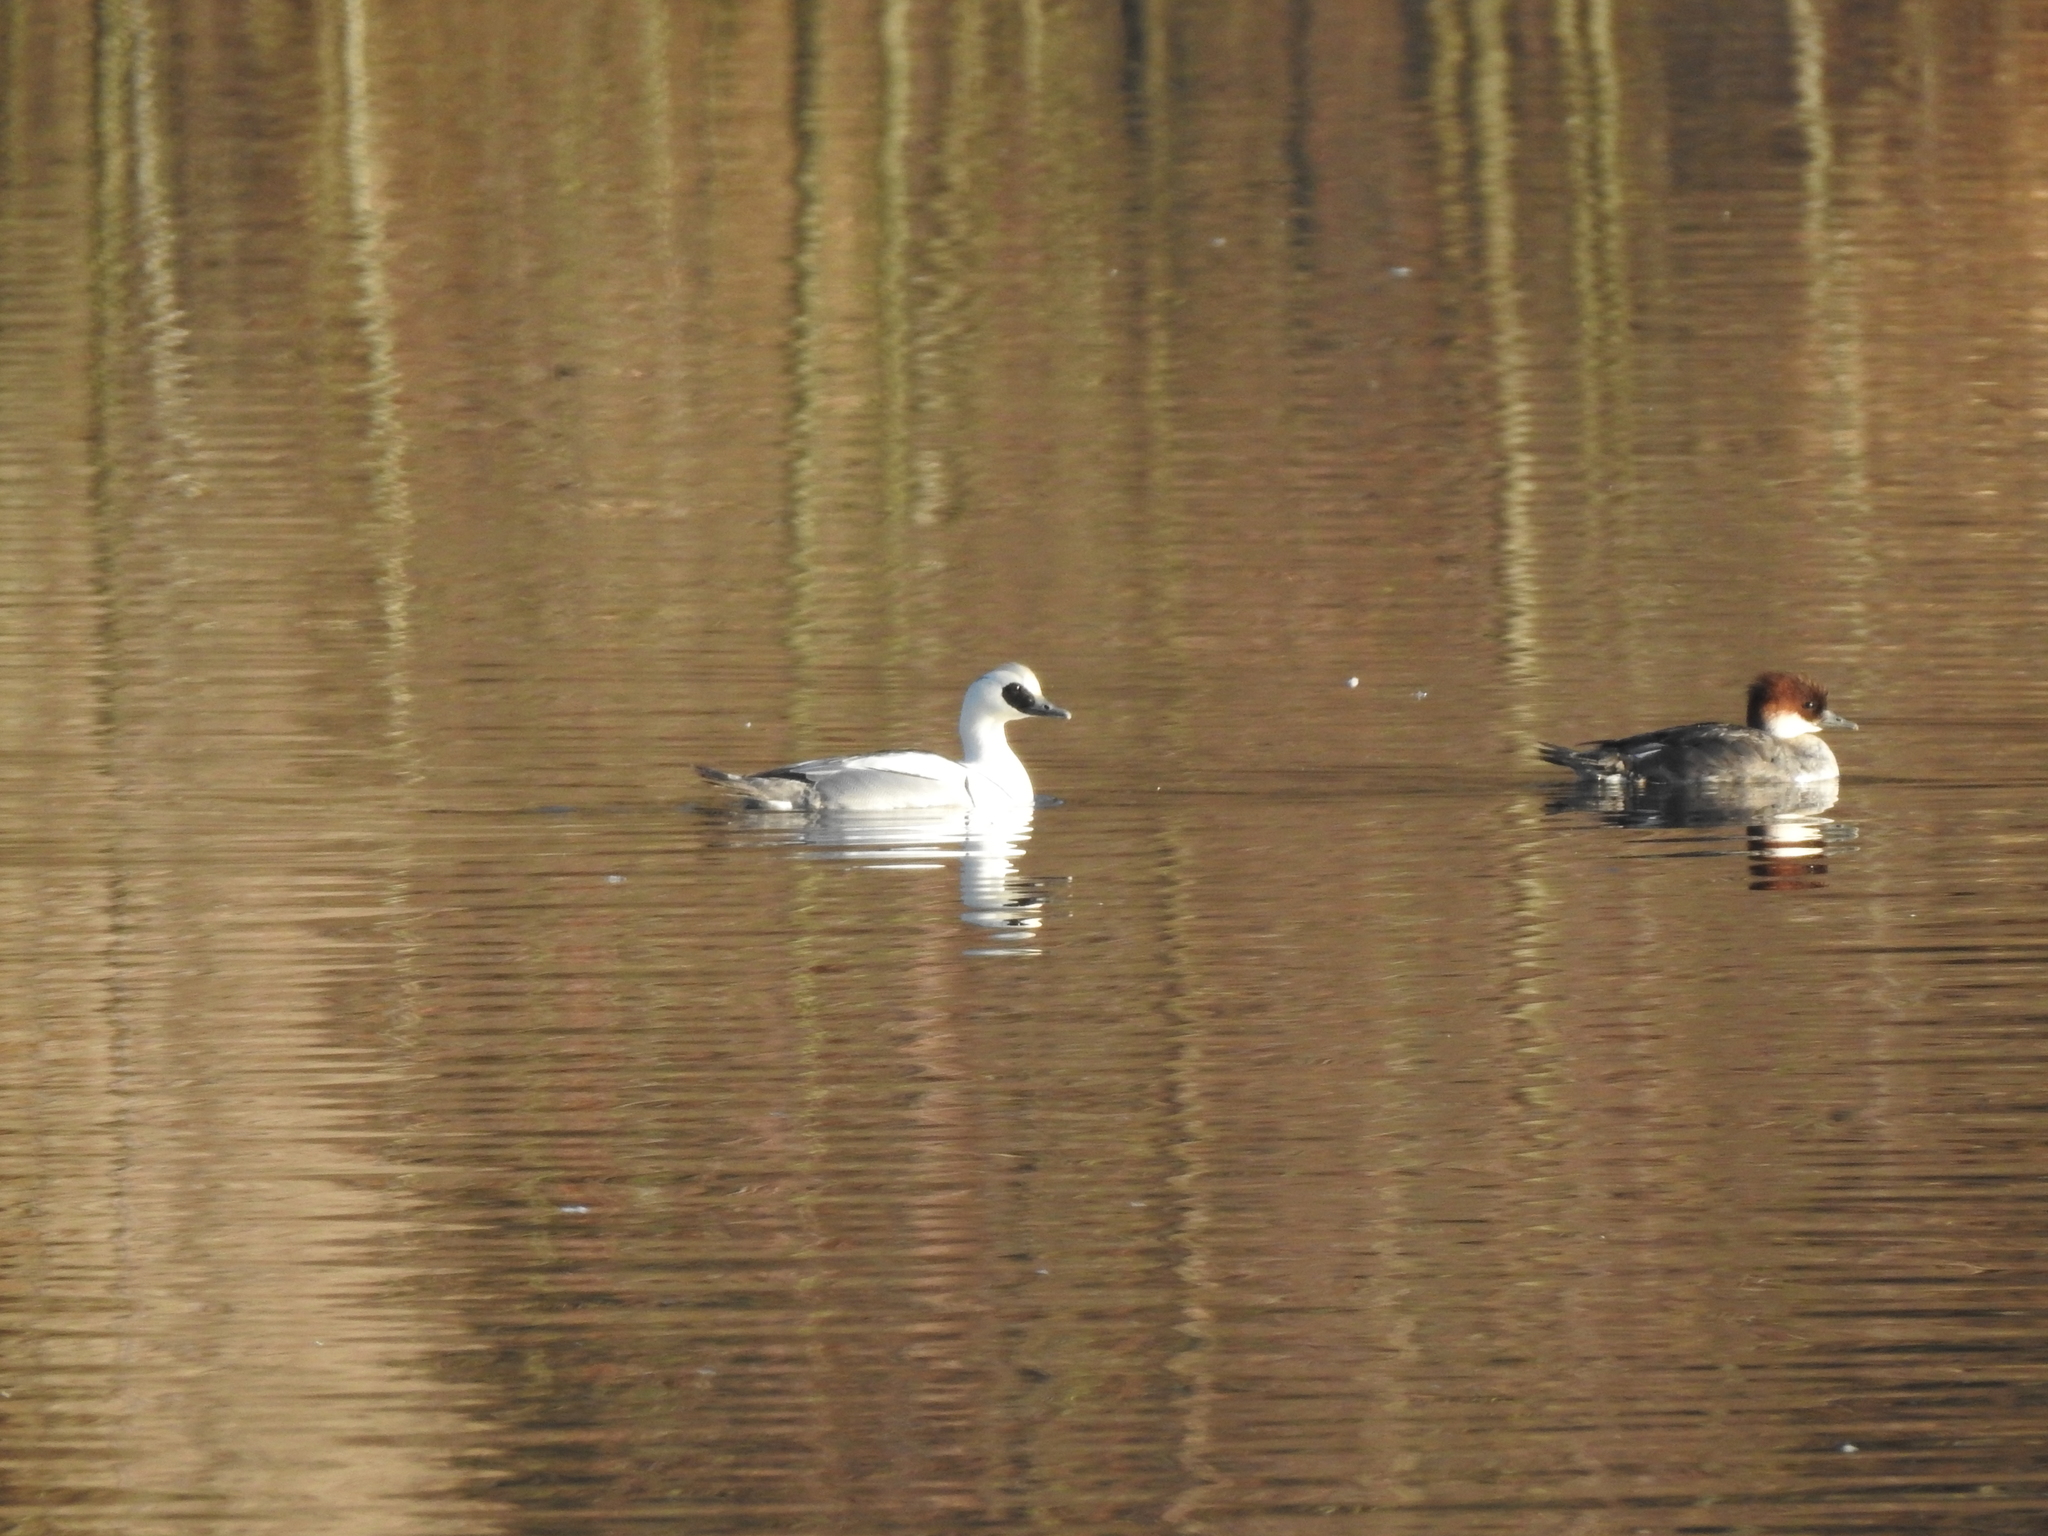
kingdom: Animalia
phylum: Chordata
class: Aves
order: Anseriformes
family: Anatidae
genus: Mergellus
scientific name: Mergellus albellus
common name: Smew
